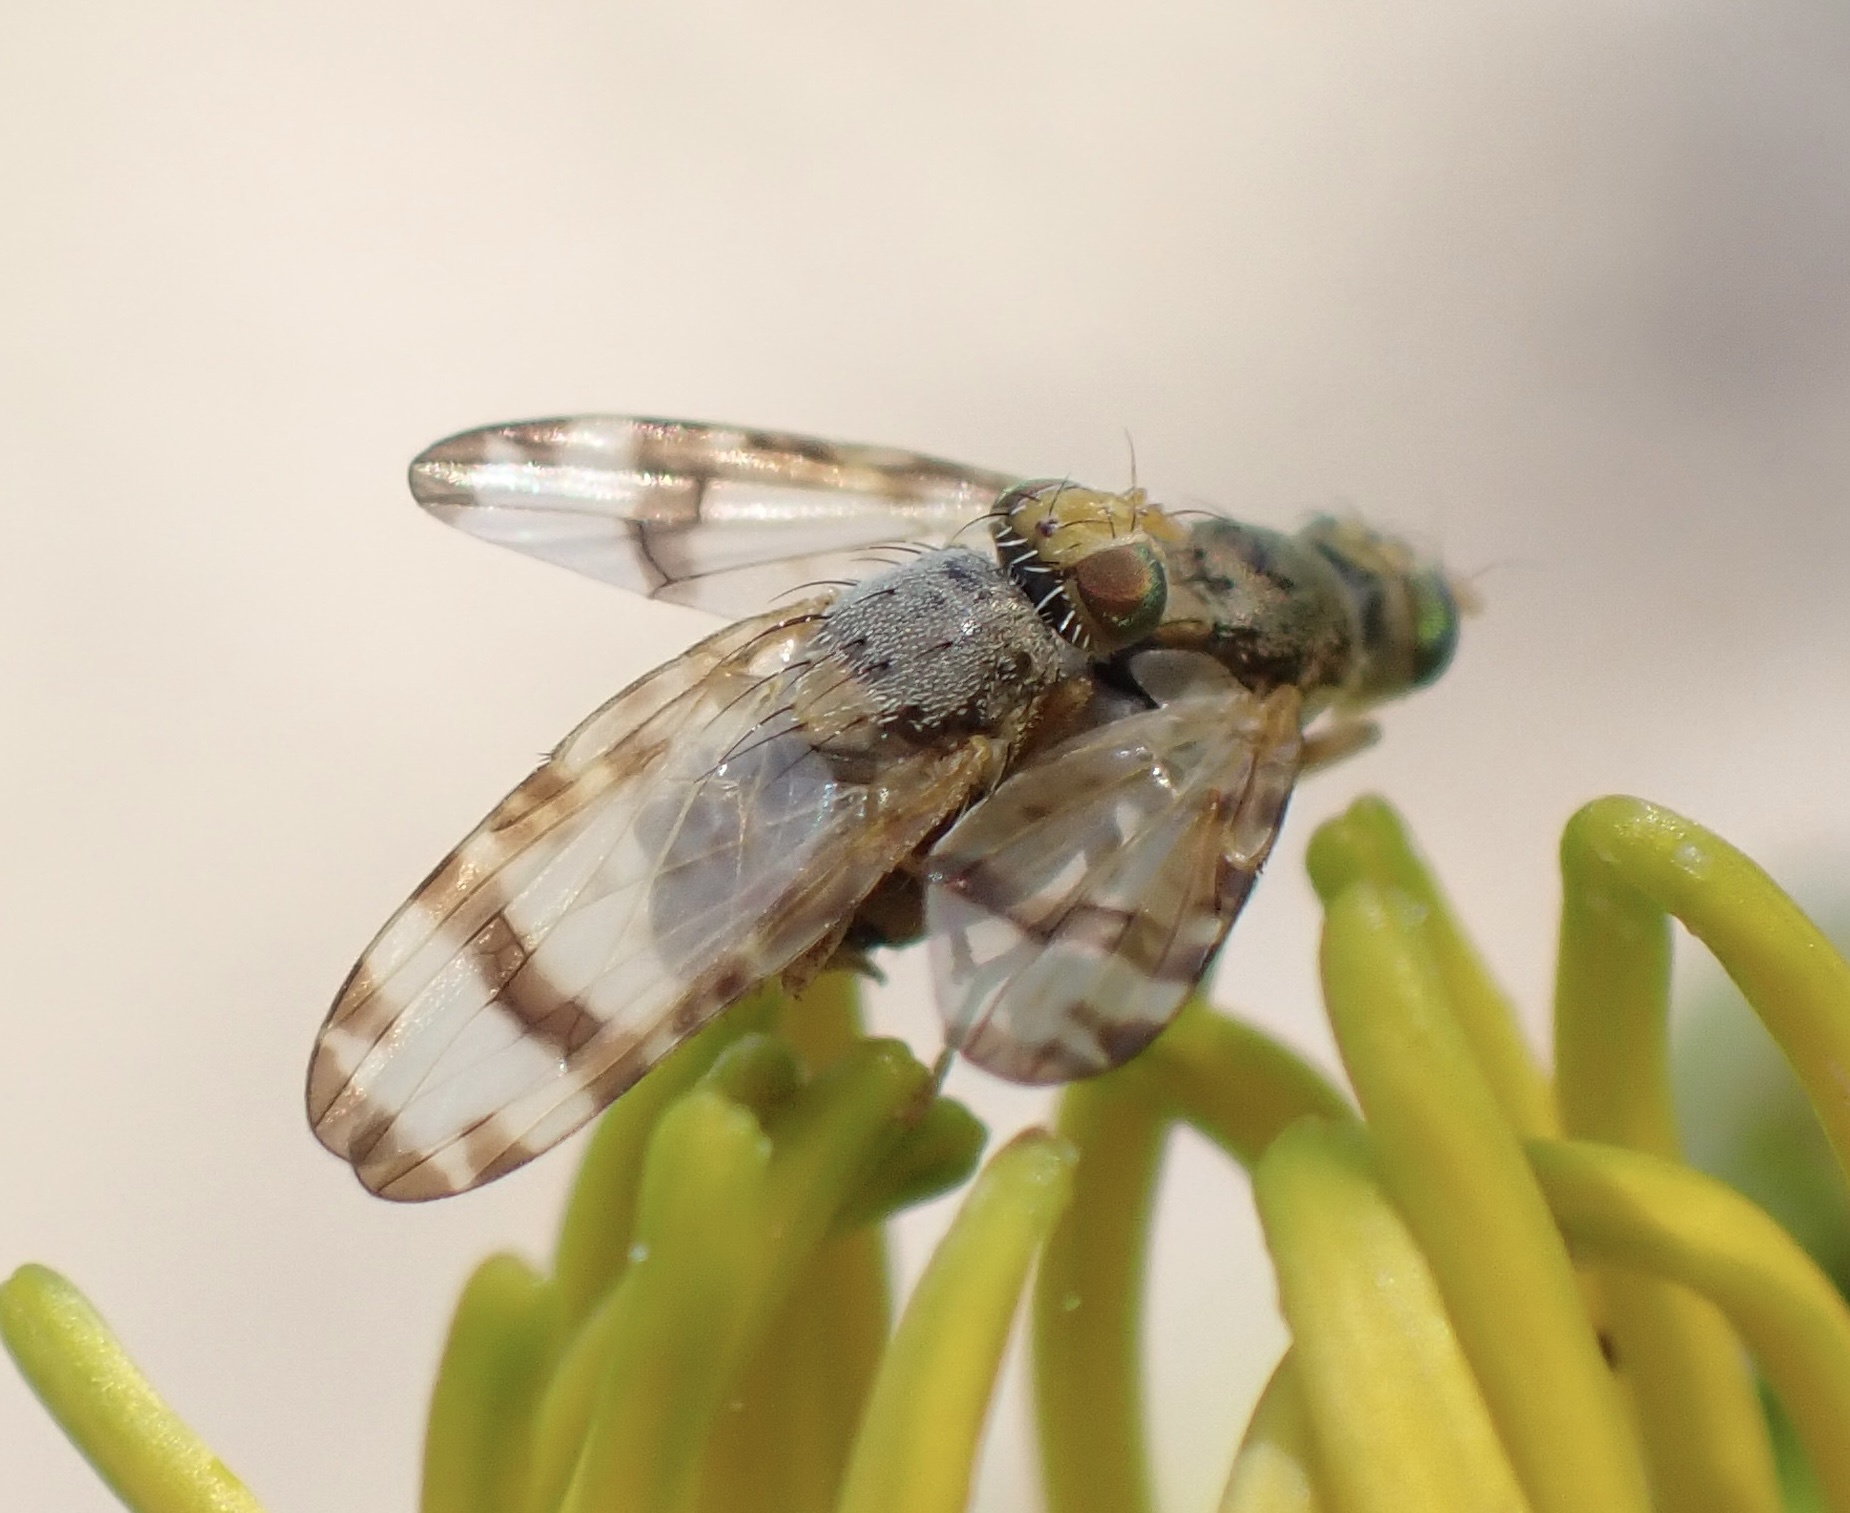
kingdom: Animalia
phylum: Arthropoda
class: Insecta
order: Diptera
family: Tephritidae
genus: Sphenella
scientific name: Sphenella marginata
